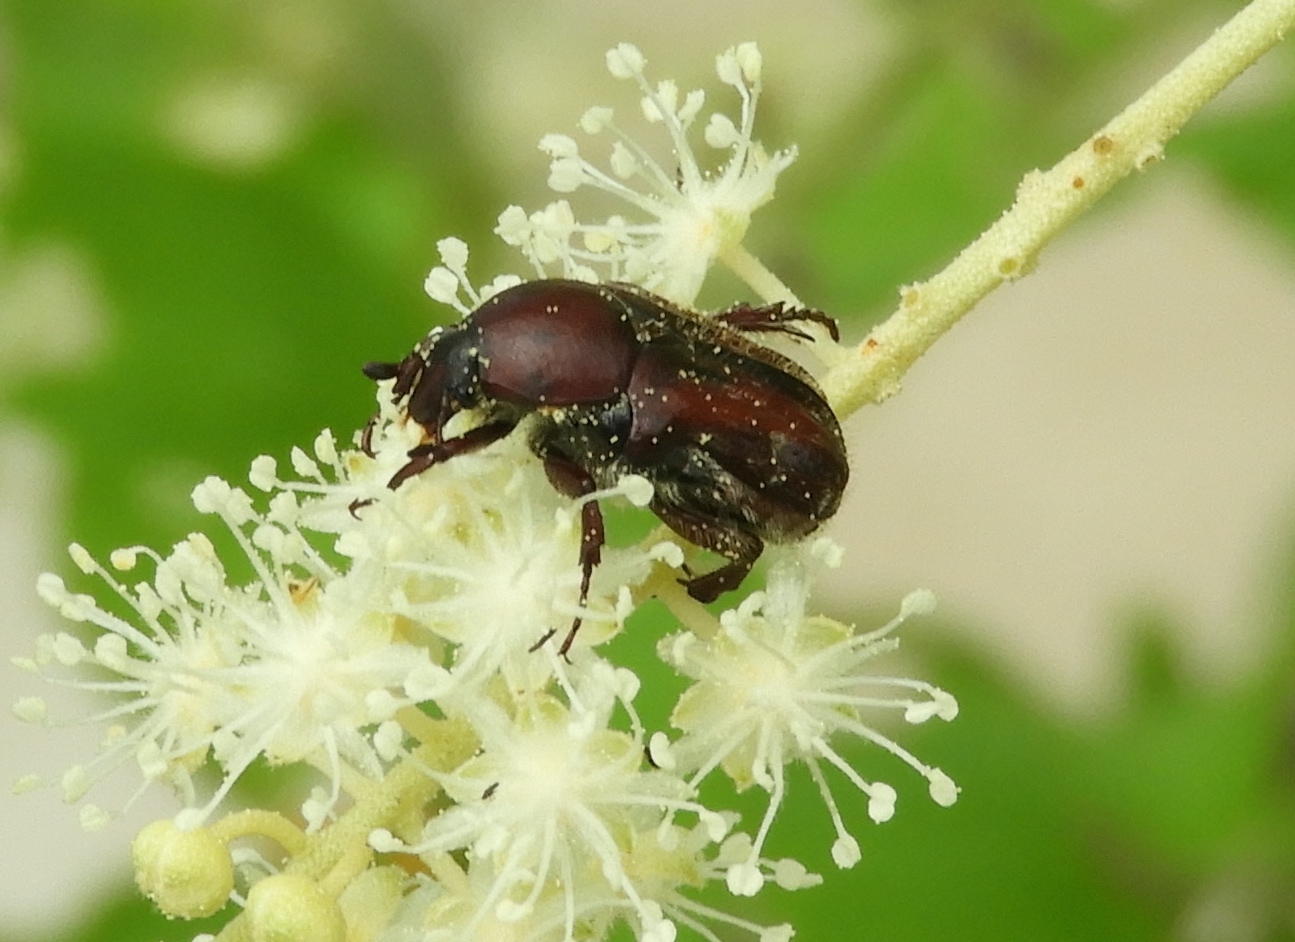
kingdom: Animalia
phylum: Arthropoda
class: Insecta
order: Coleoptera
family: Scarabaeidae
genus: Euphoria
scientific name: Euphoria pulchella
